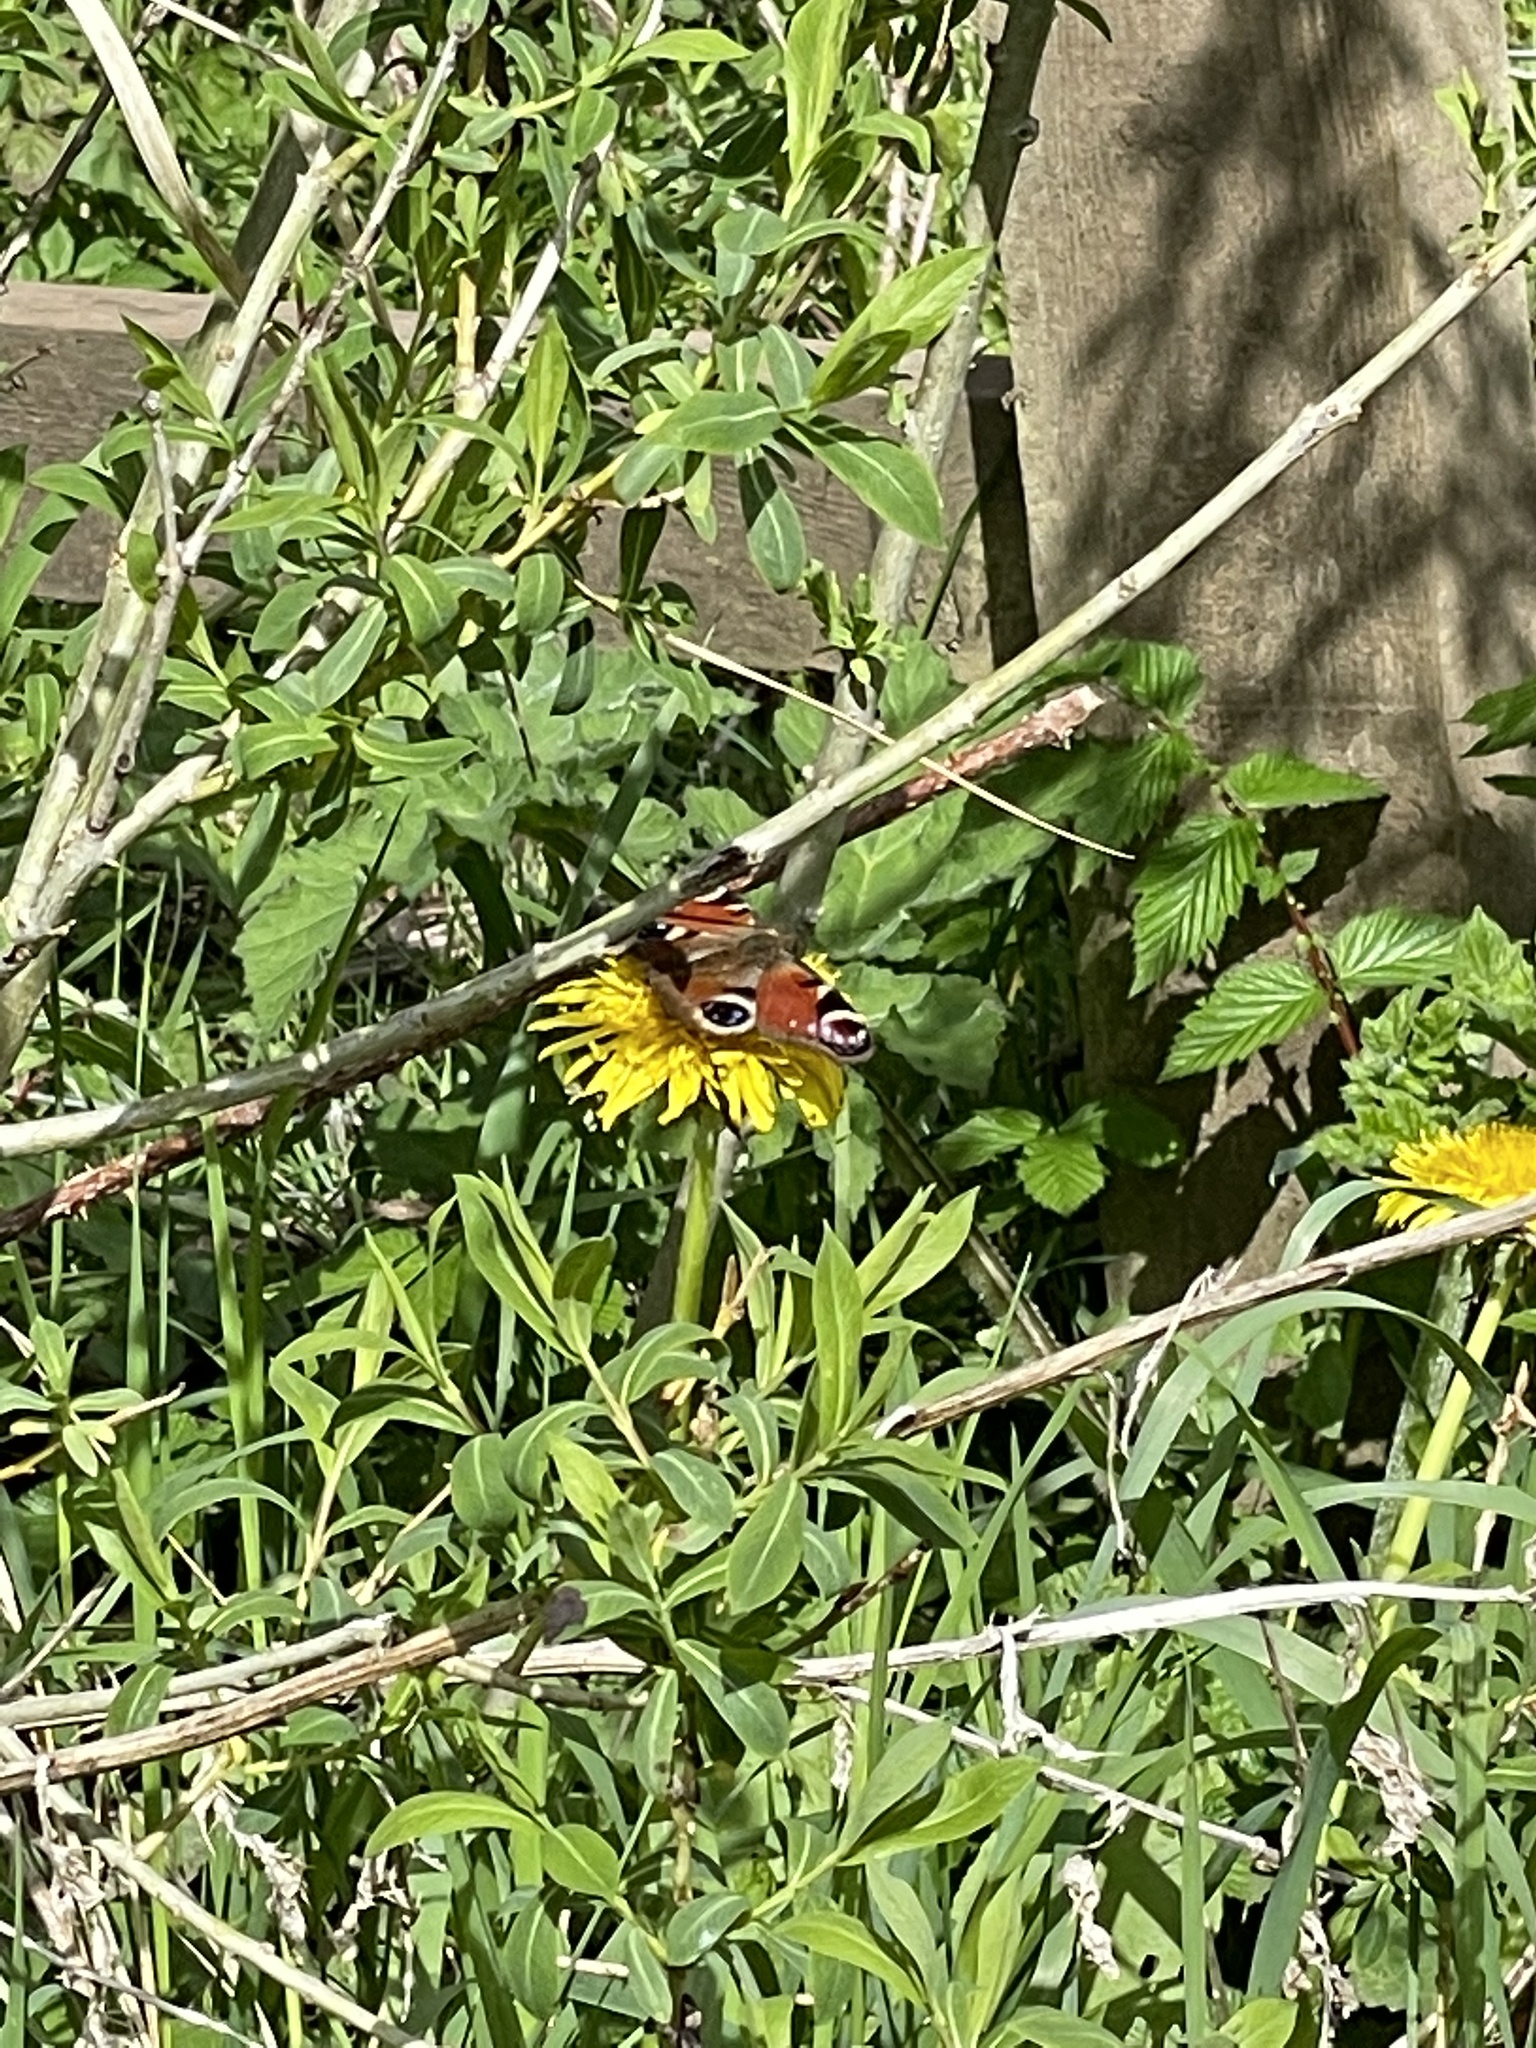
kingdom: Animalia
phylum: Arthropoda
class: Insecta
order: Lepidoptera
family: Nymphalidae
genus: Aglais
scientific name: Aglais io
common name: Peacock
